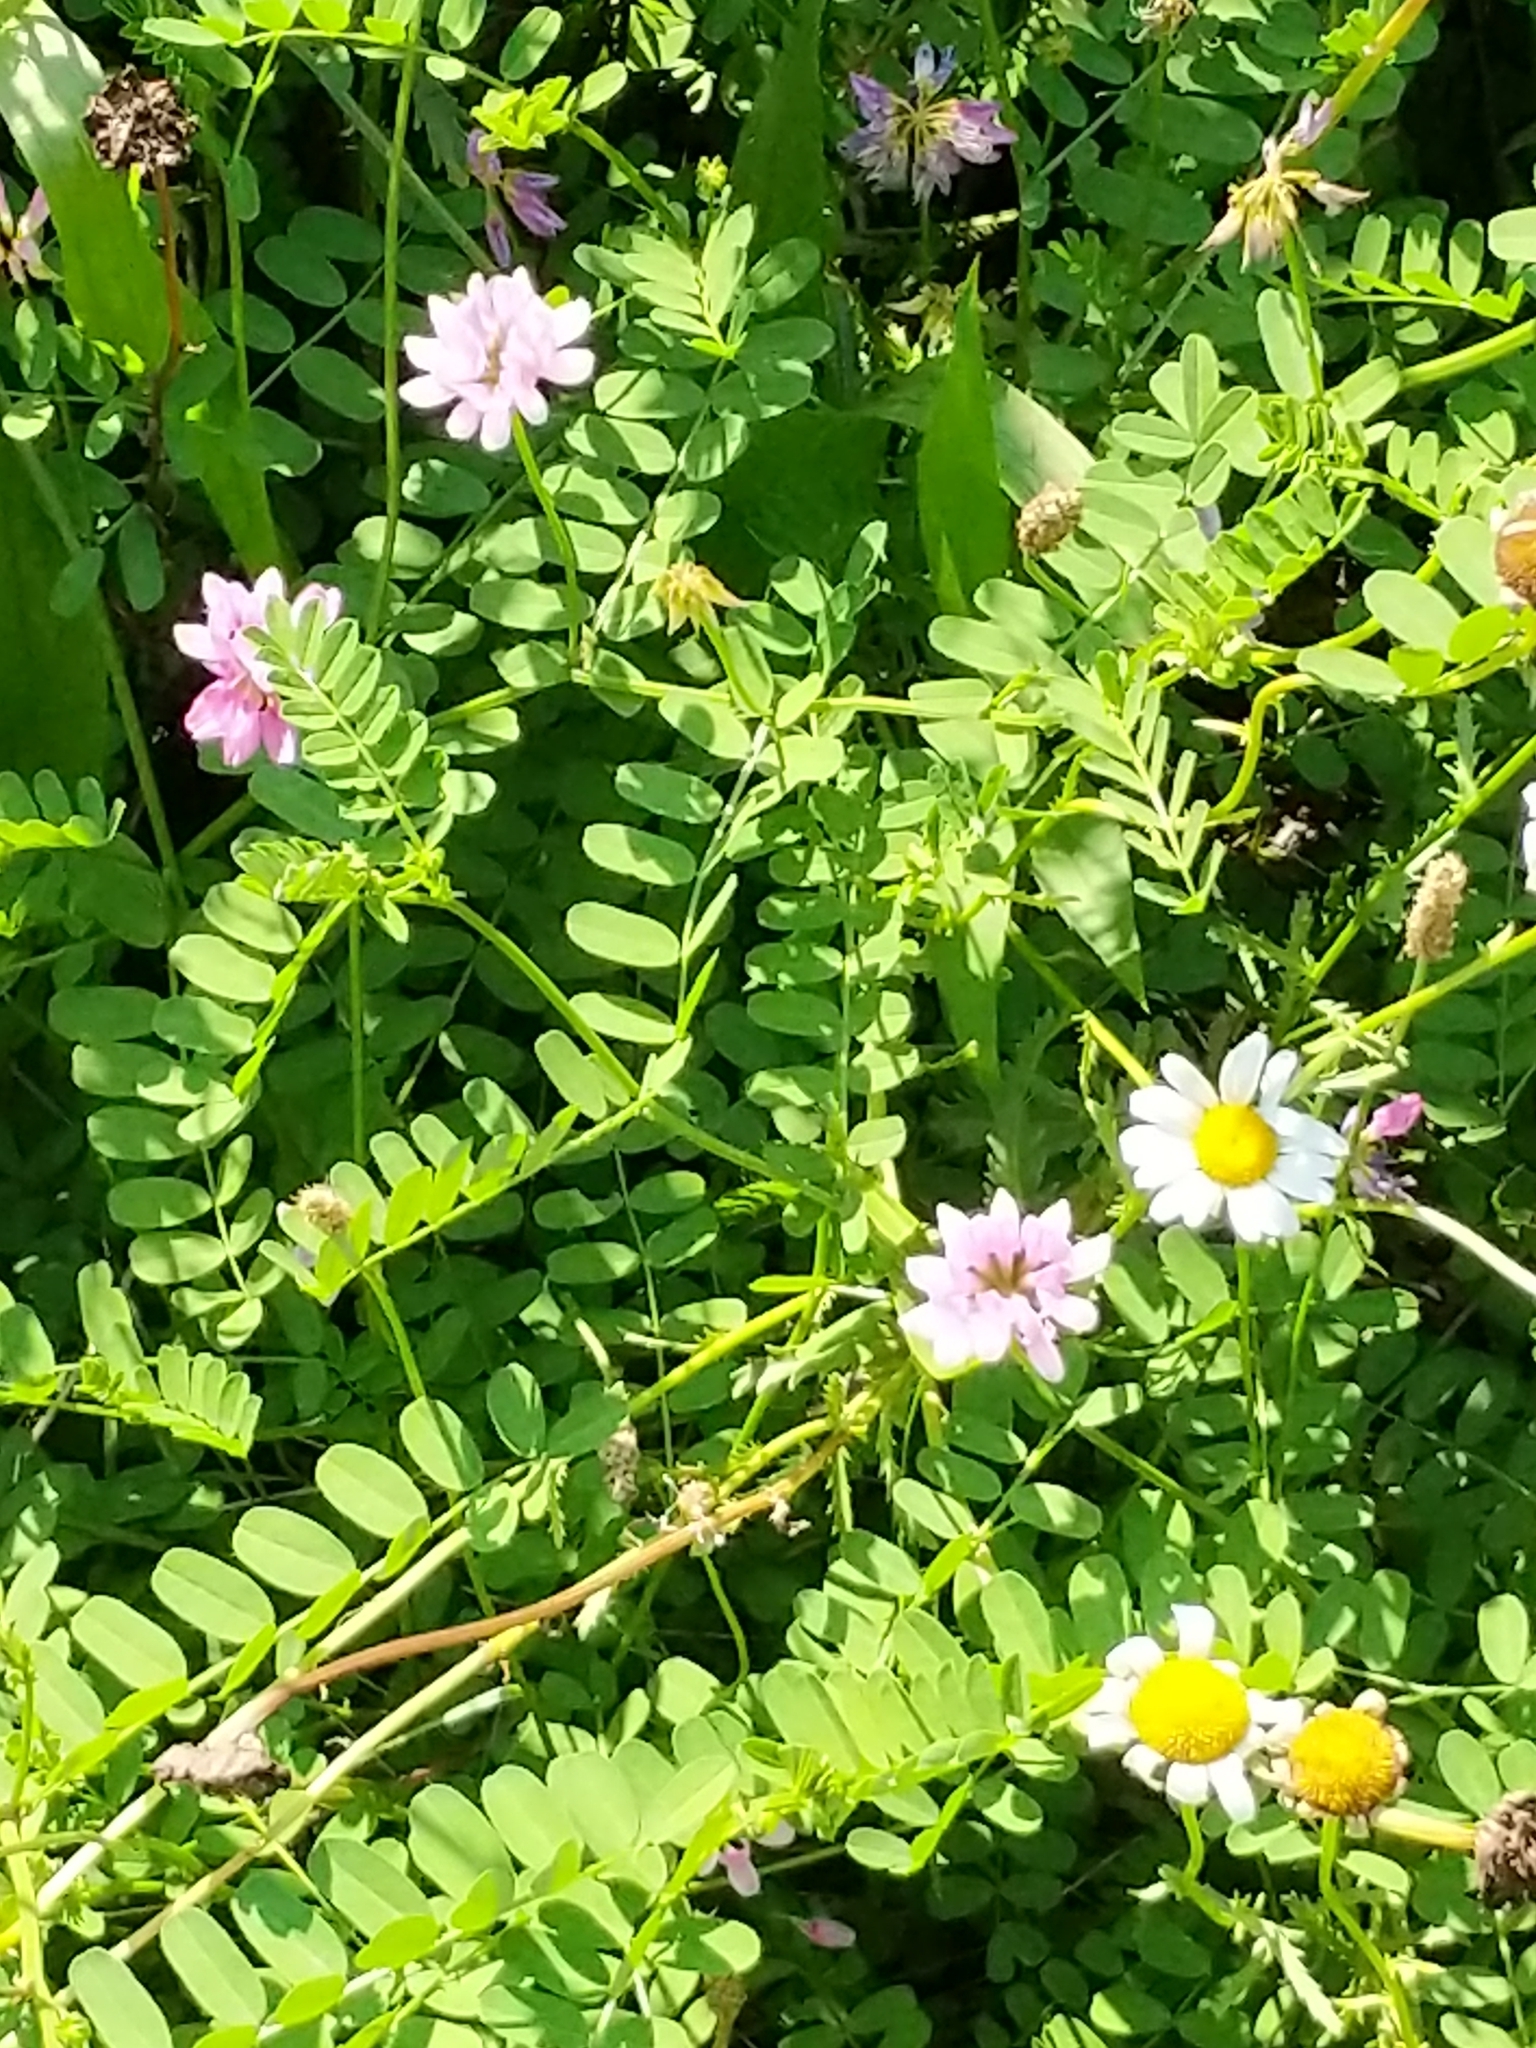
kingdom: Plantae
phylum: Tracheophyta
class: Magnoliopsida
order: Fabales
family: Fabaceae
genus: Coronilla
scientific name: Coronilla varia
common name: Crownvetch
